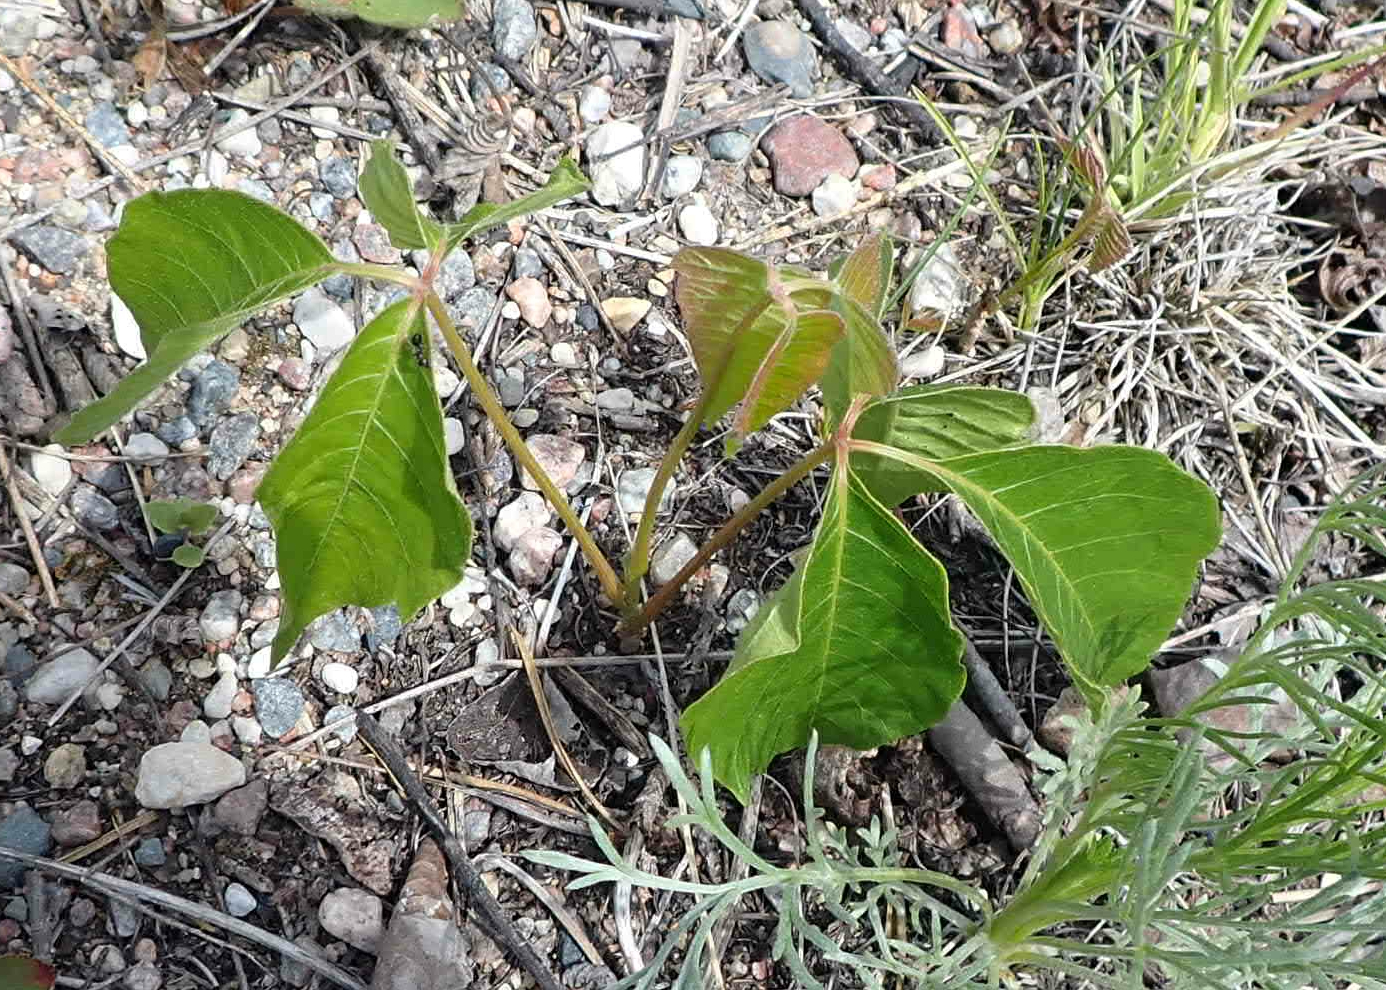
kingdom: Plantae
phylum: Tracheophyta
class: Magnoliopsida
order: Sapindales
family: Anacardiaceae
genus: Toxicodendron
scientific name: Toxicodendron rydbergii
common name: Rydberg's poison-ivy
